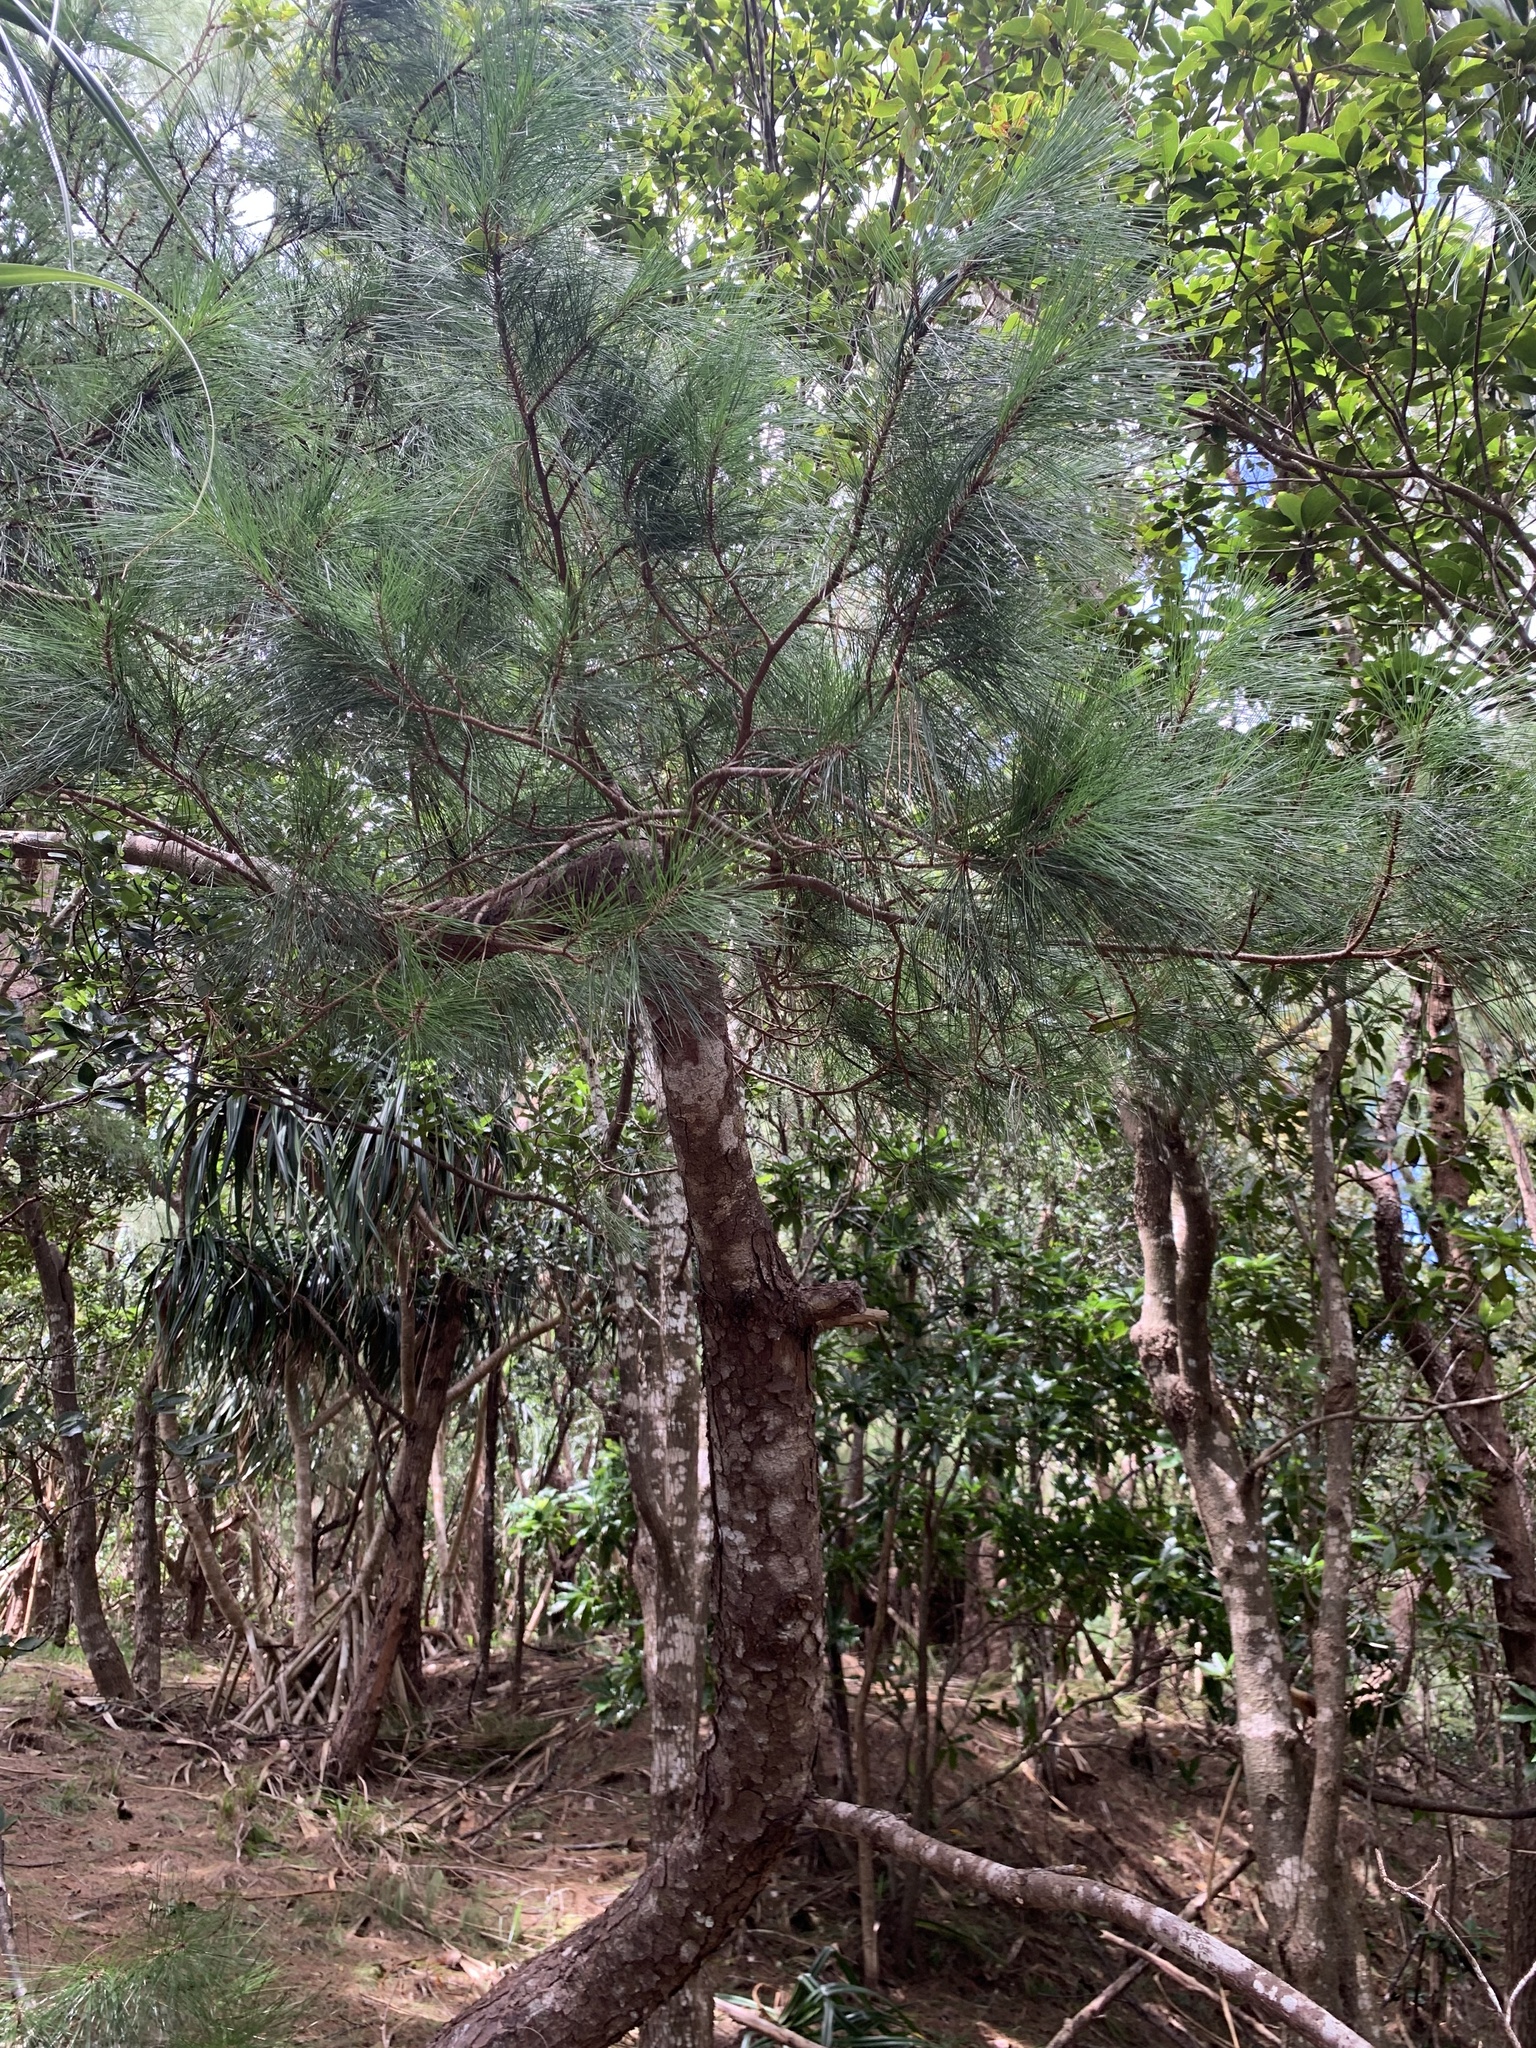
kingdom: Plantae
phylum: Tracheophyta
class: Pinopsida
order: Pinales
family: Pinaceae
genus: Pinus
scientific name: Pinus luchuensis
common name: Luchu pine
